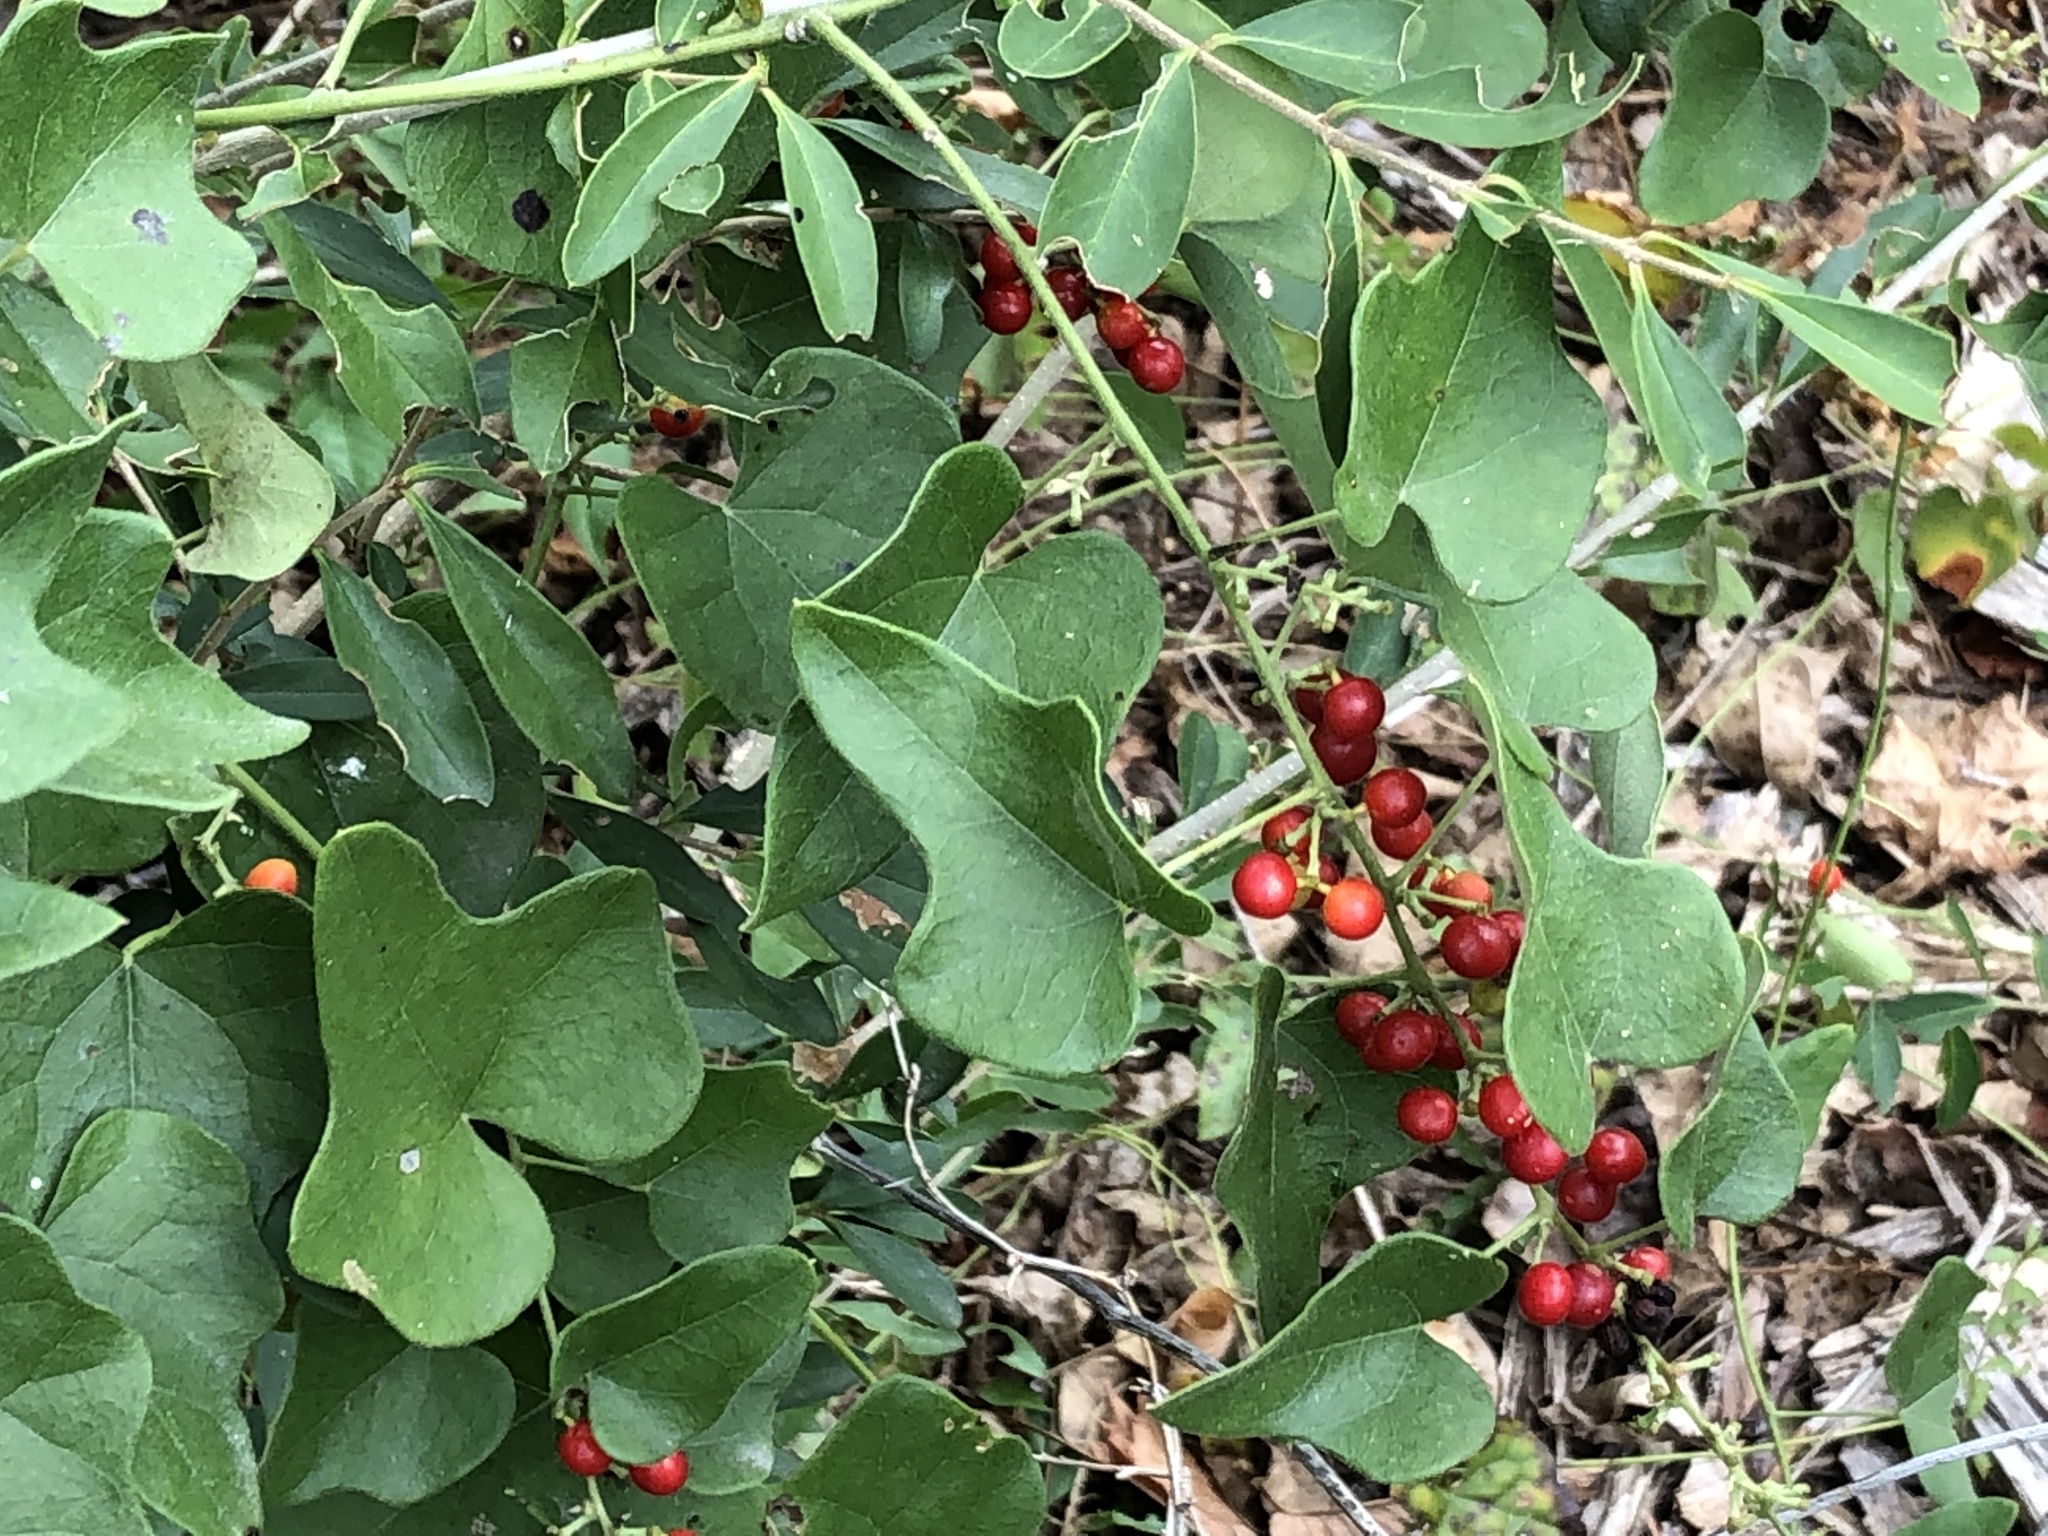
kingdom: Plantae
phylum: Tracheophyta
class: Magnoliopsida
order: Ranunculales
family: Menispermaceae
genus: Cocculus
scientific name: Cocculus carolinus
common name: Carolina moonseed
